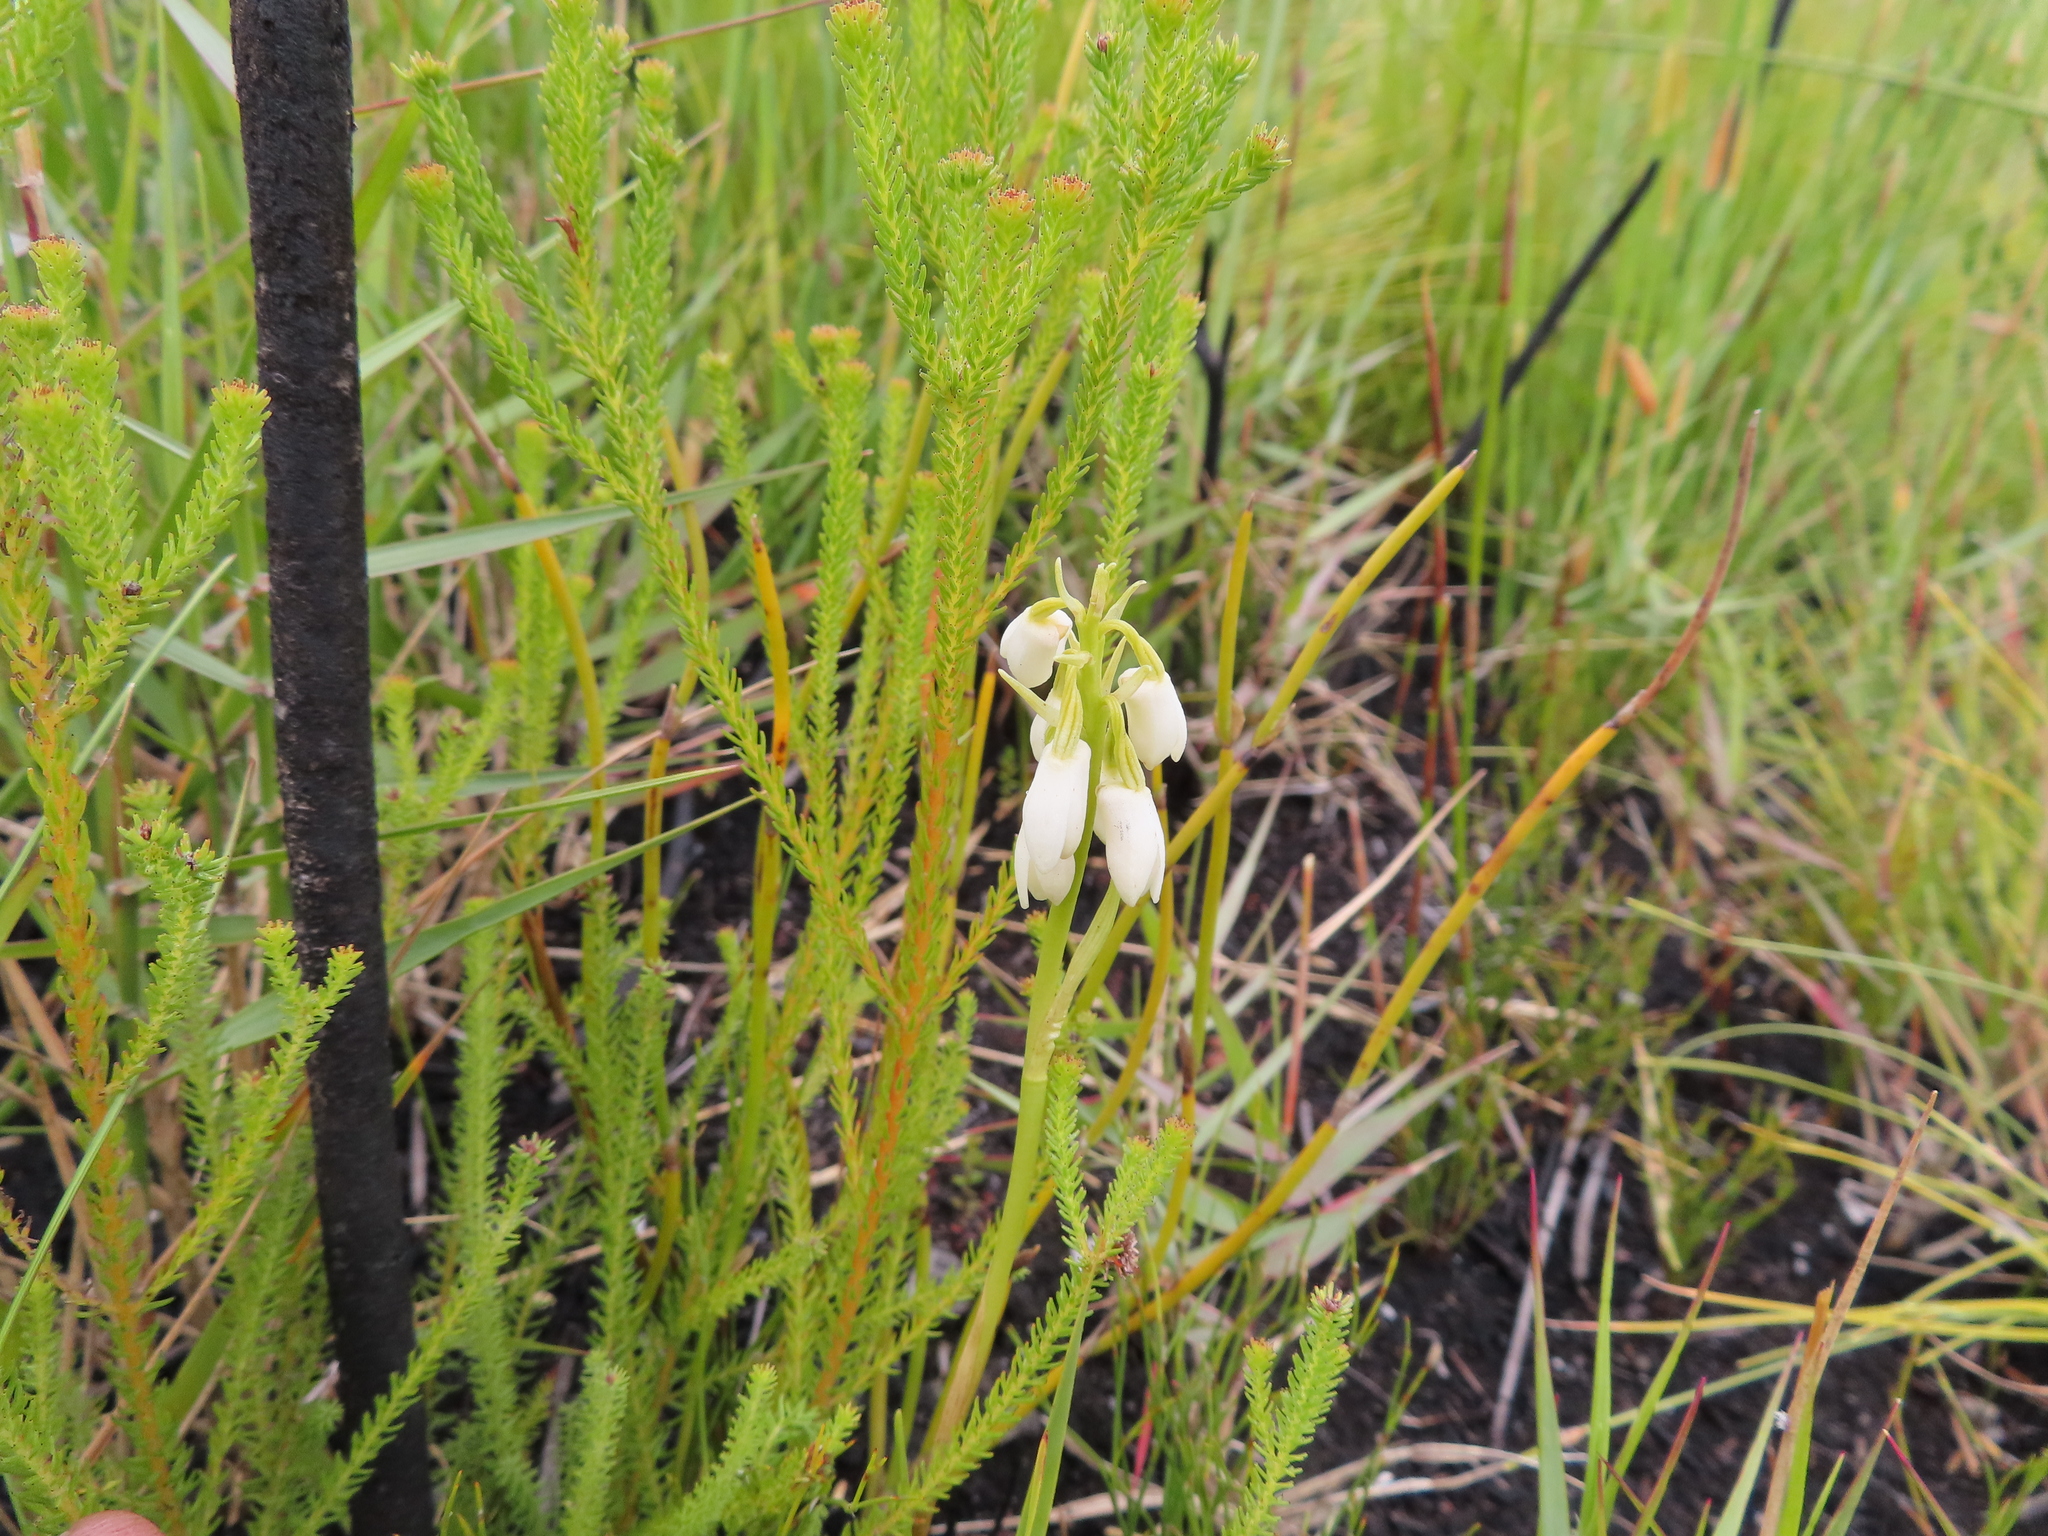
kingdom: Plantae
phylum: Tracheophyta
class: Liliopsida
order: Asparagales
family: Orchidaceae
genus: Eulophia
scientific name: Eulophia aculeata
